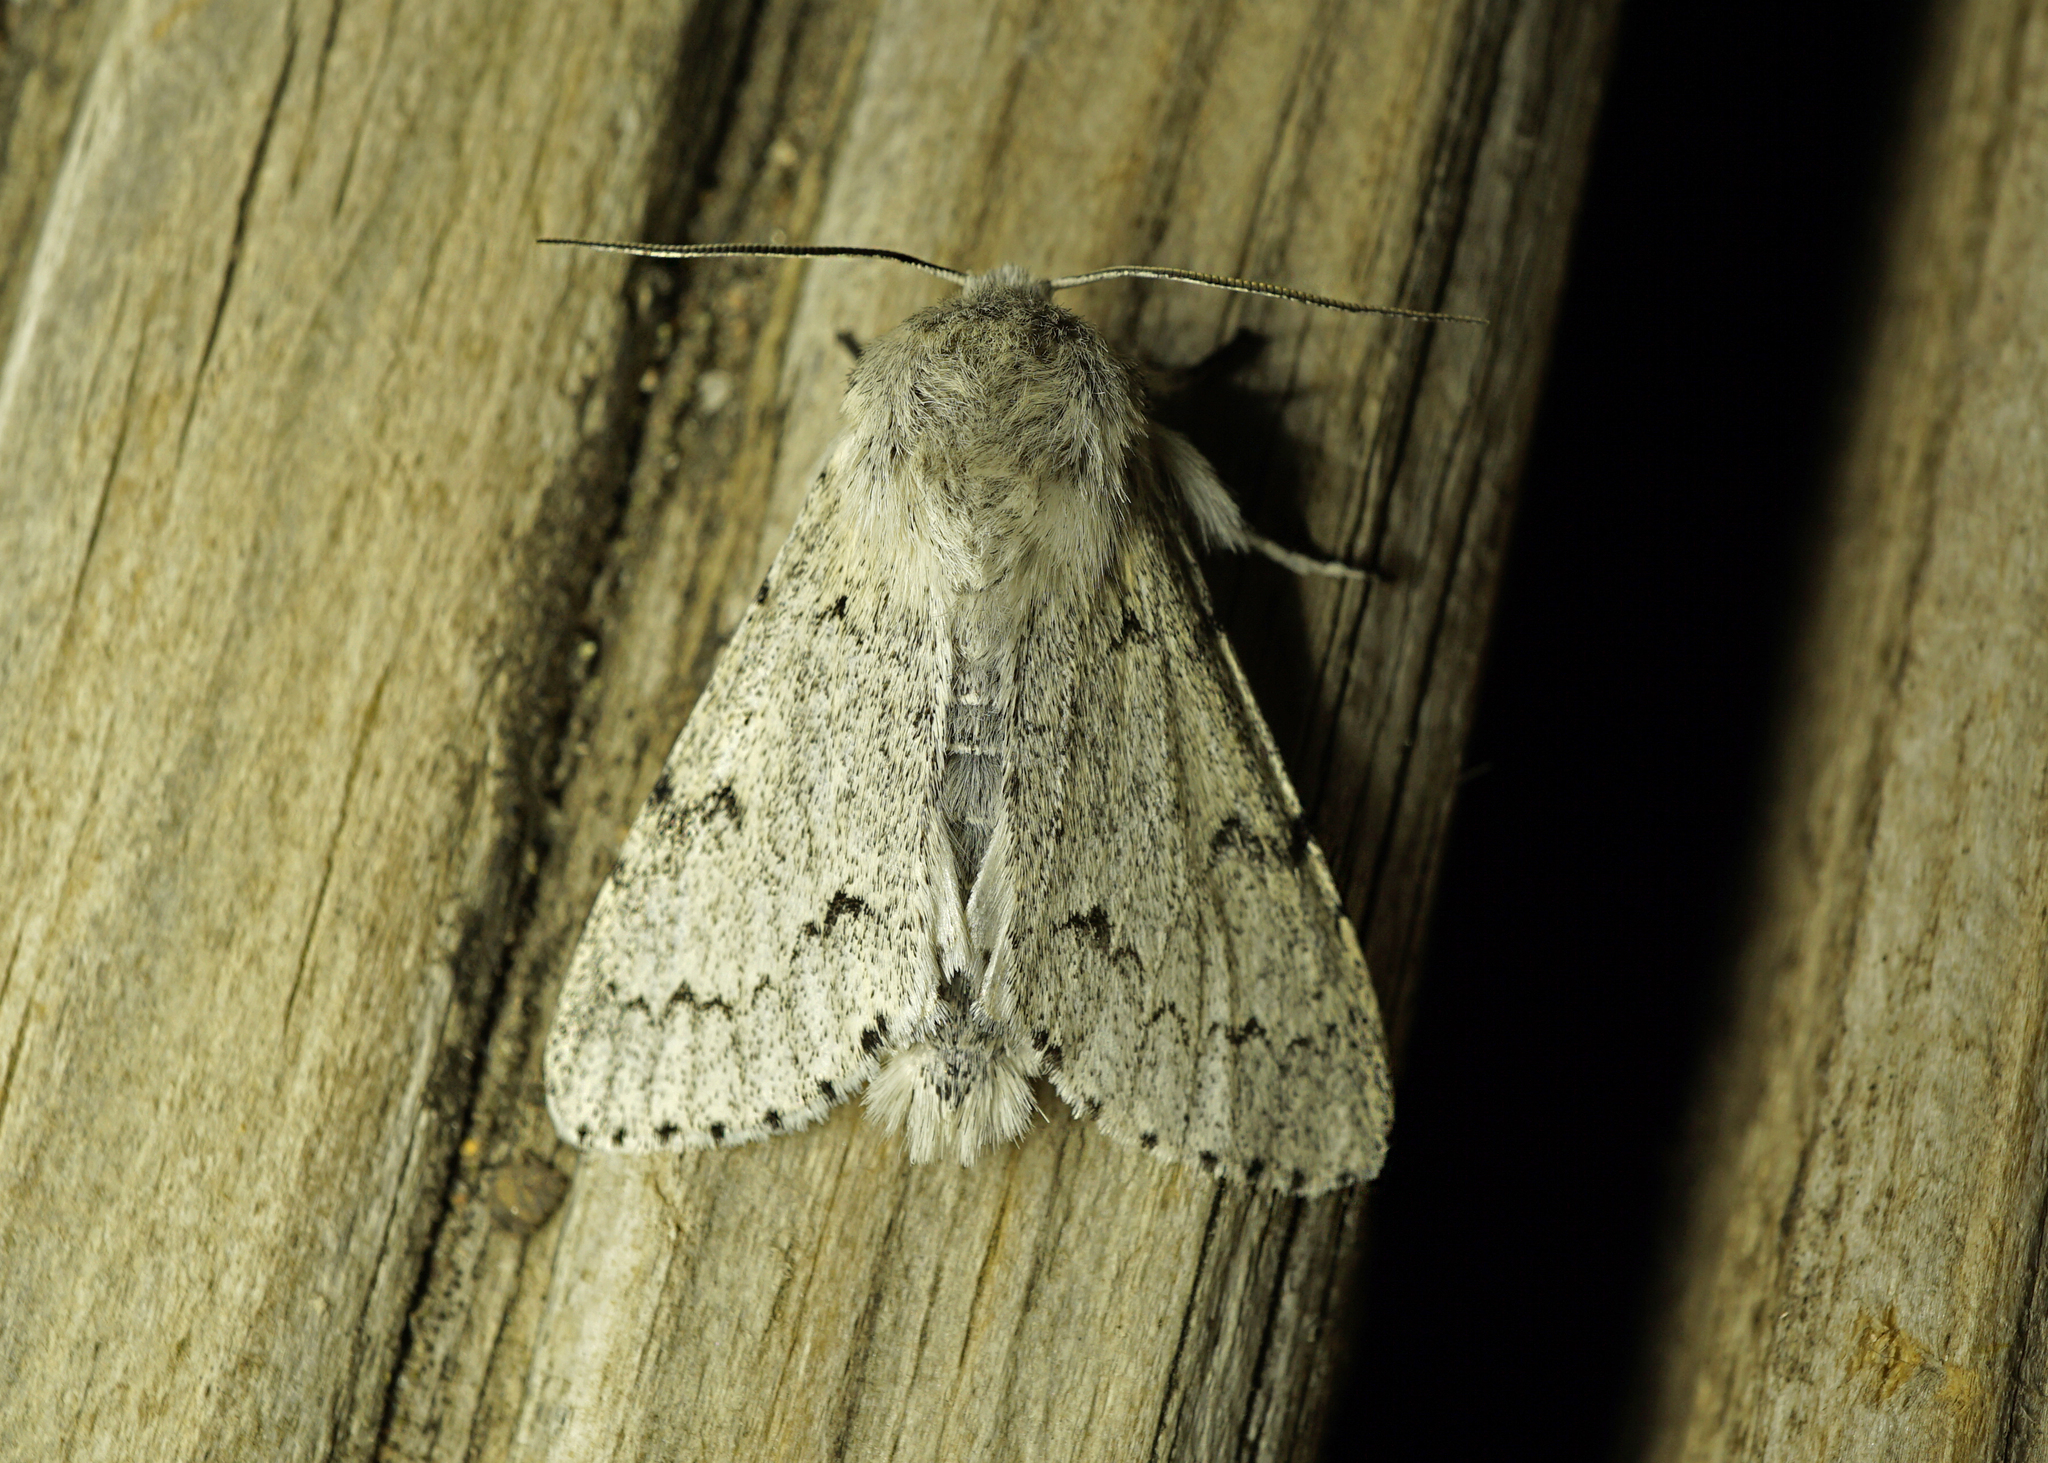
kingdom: Animalia
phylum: Arthropoda
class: Insecta
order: Lepidoptera
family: Noctuidae
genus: Acronicta
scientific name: Acronicta leporina
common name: Miller
